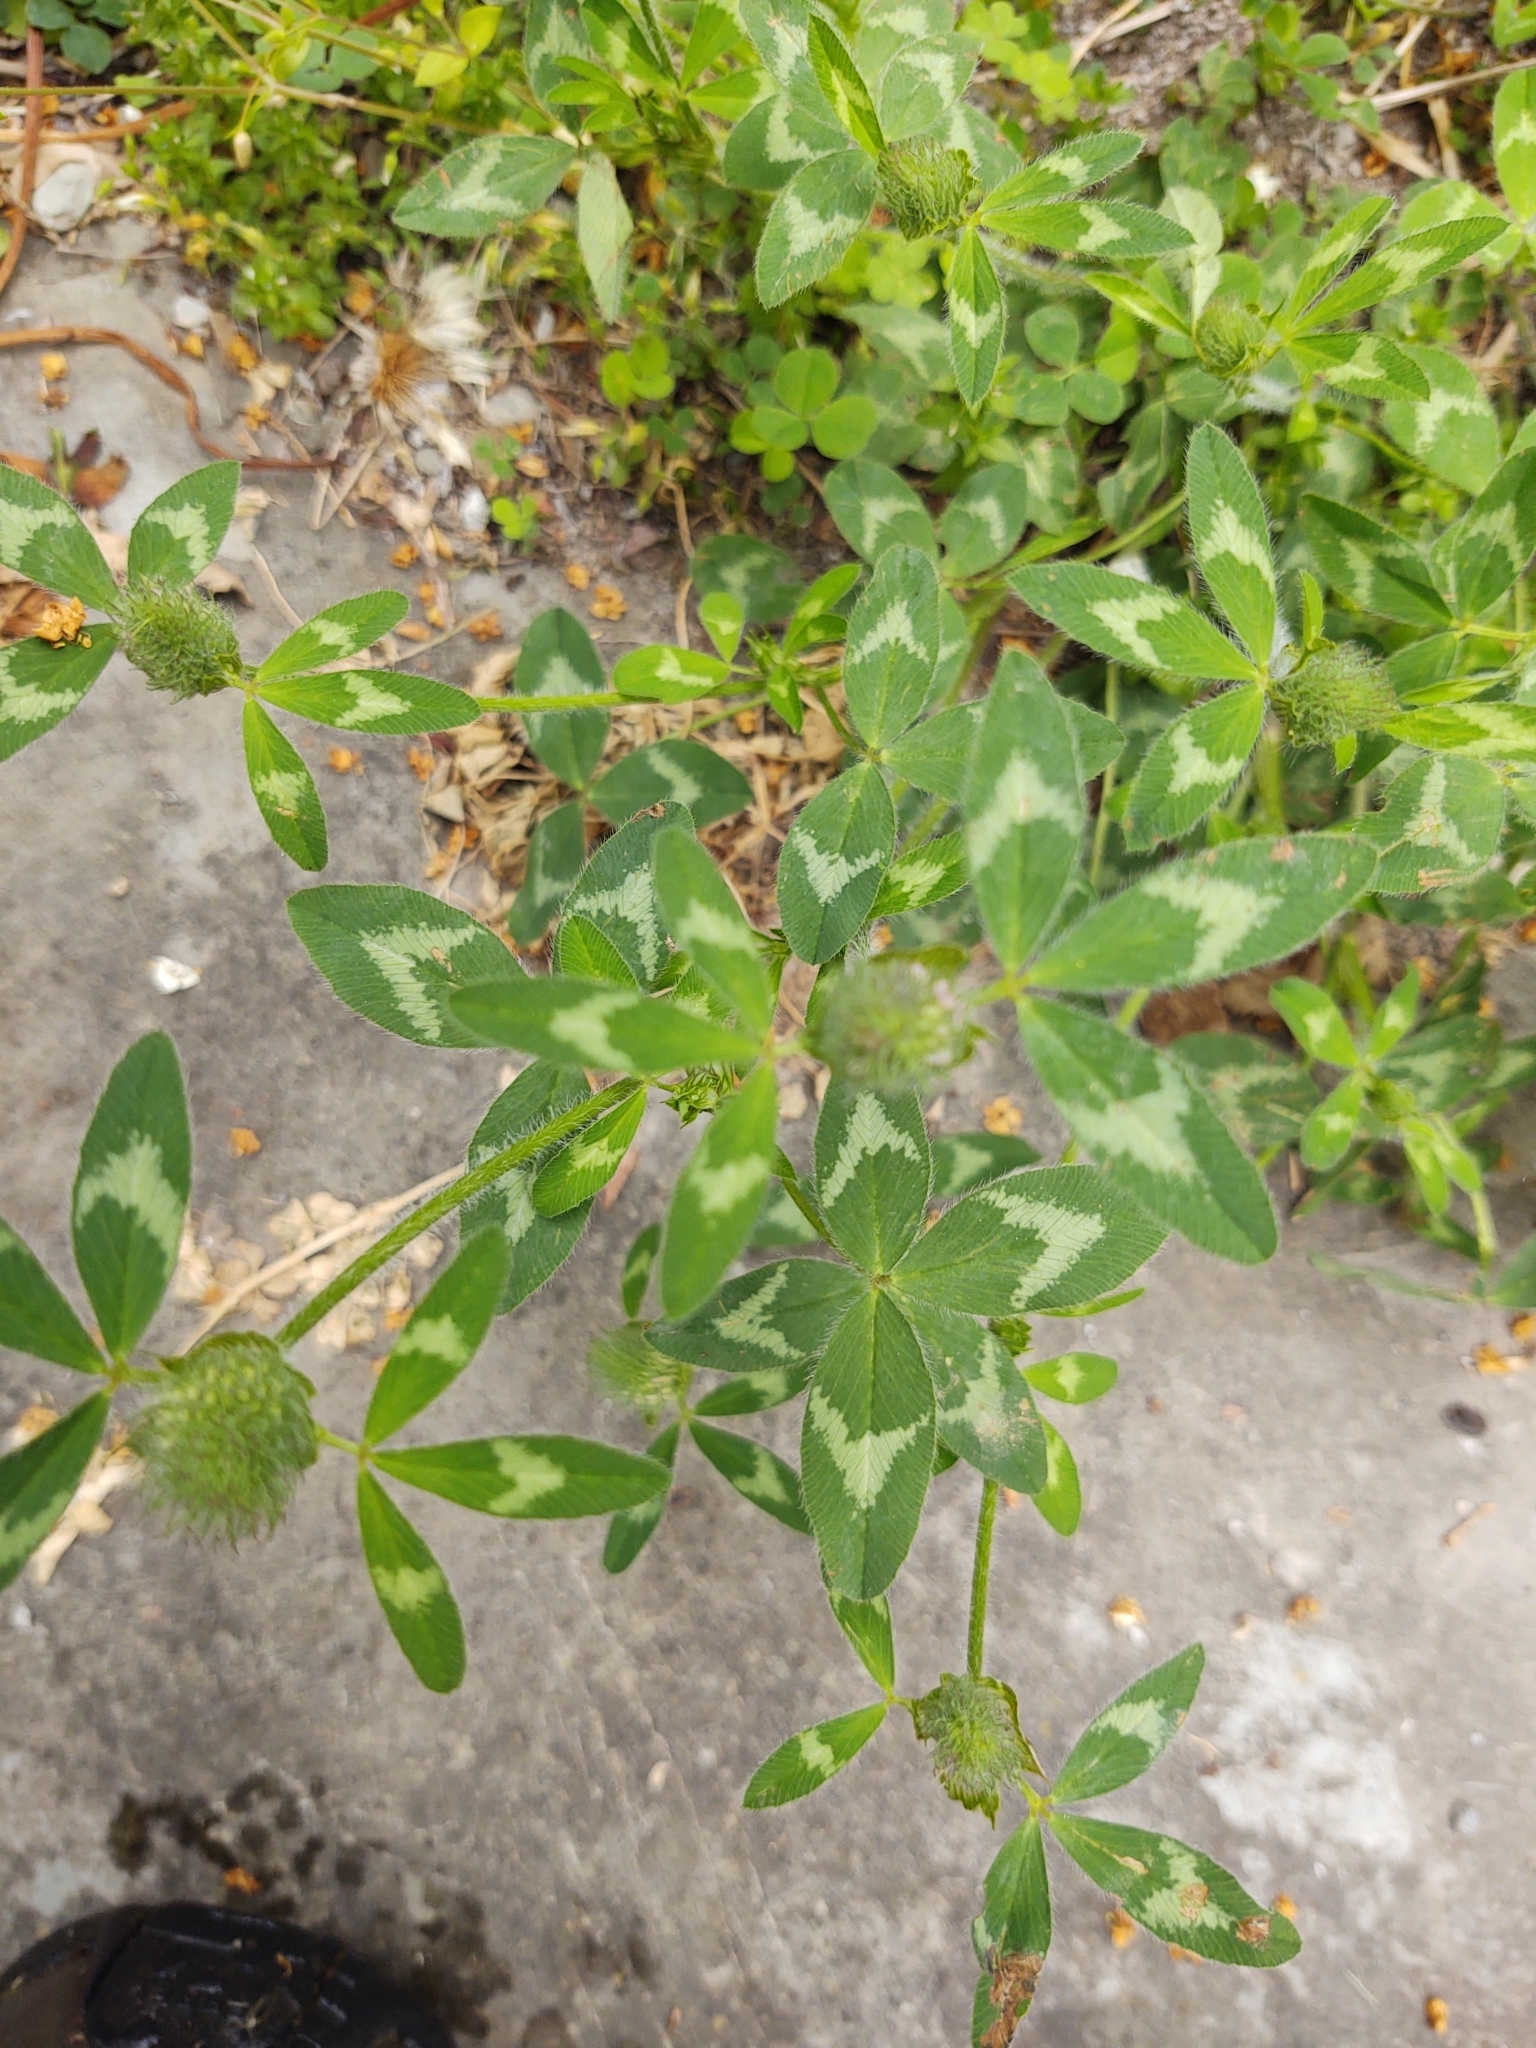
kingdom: Plantae
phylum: Tracheophyta
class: Magnoliopsida
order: Fabales
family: Fabaceae
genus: Trifolium
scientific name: Trifolium pratense
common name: Red clover
